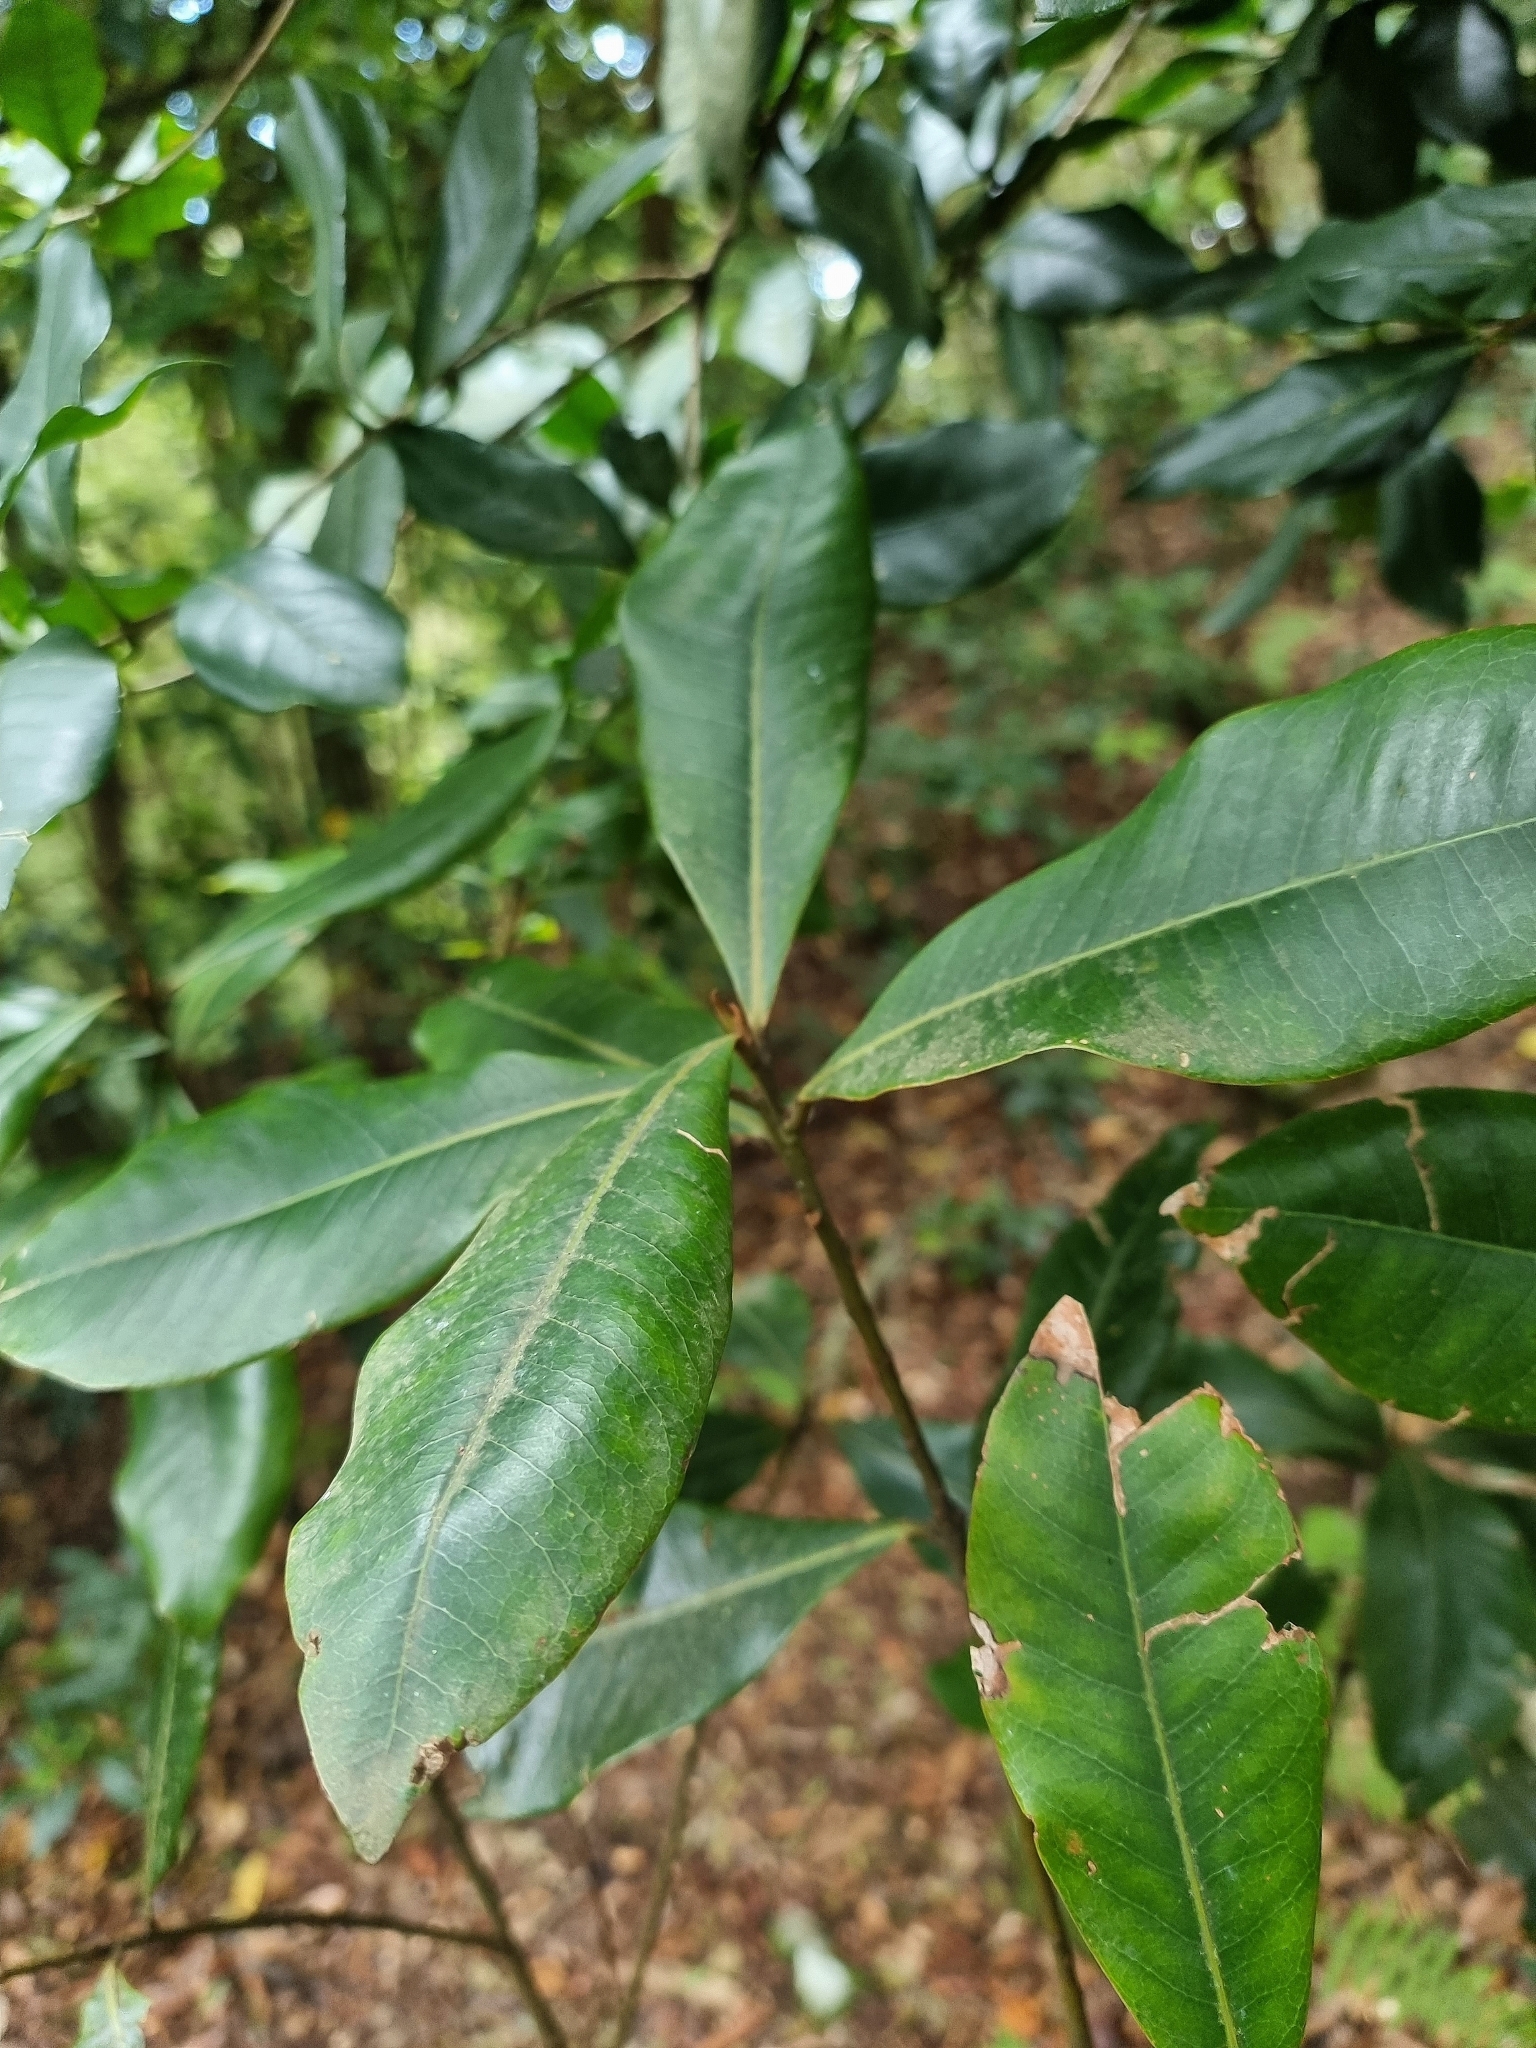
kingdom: Plantae
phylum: Tracheophyta
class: Magnoliopsida
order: Ericales
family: Primulaceae
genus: Heberdenia
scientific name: Heberdenia excelsa
